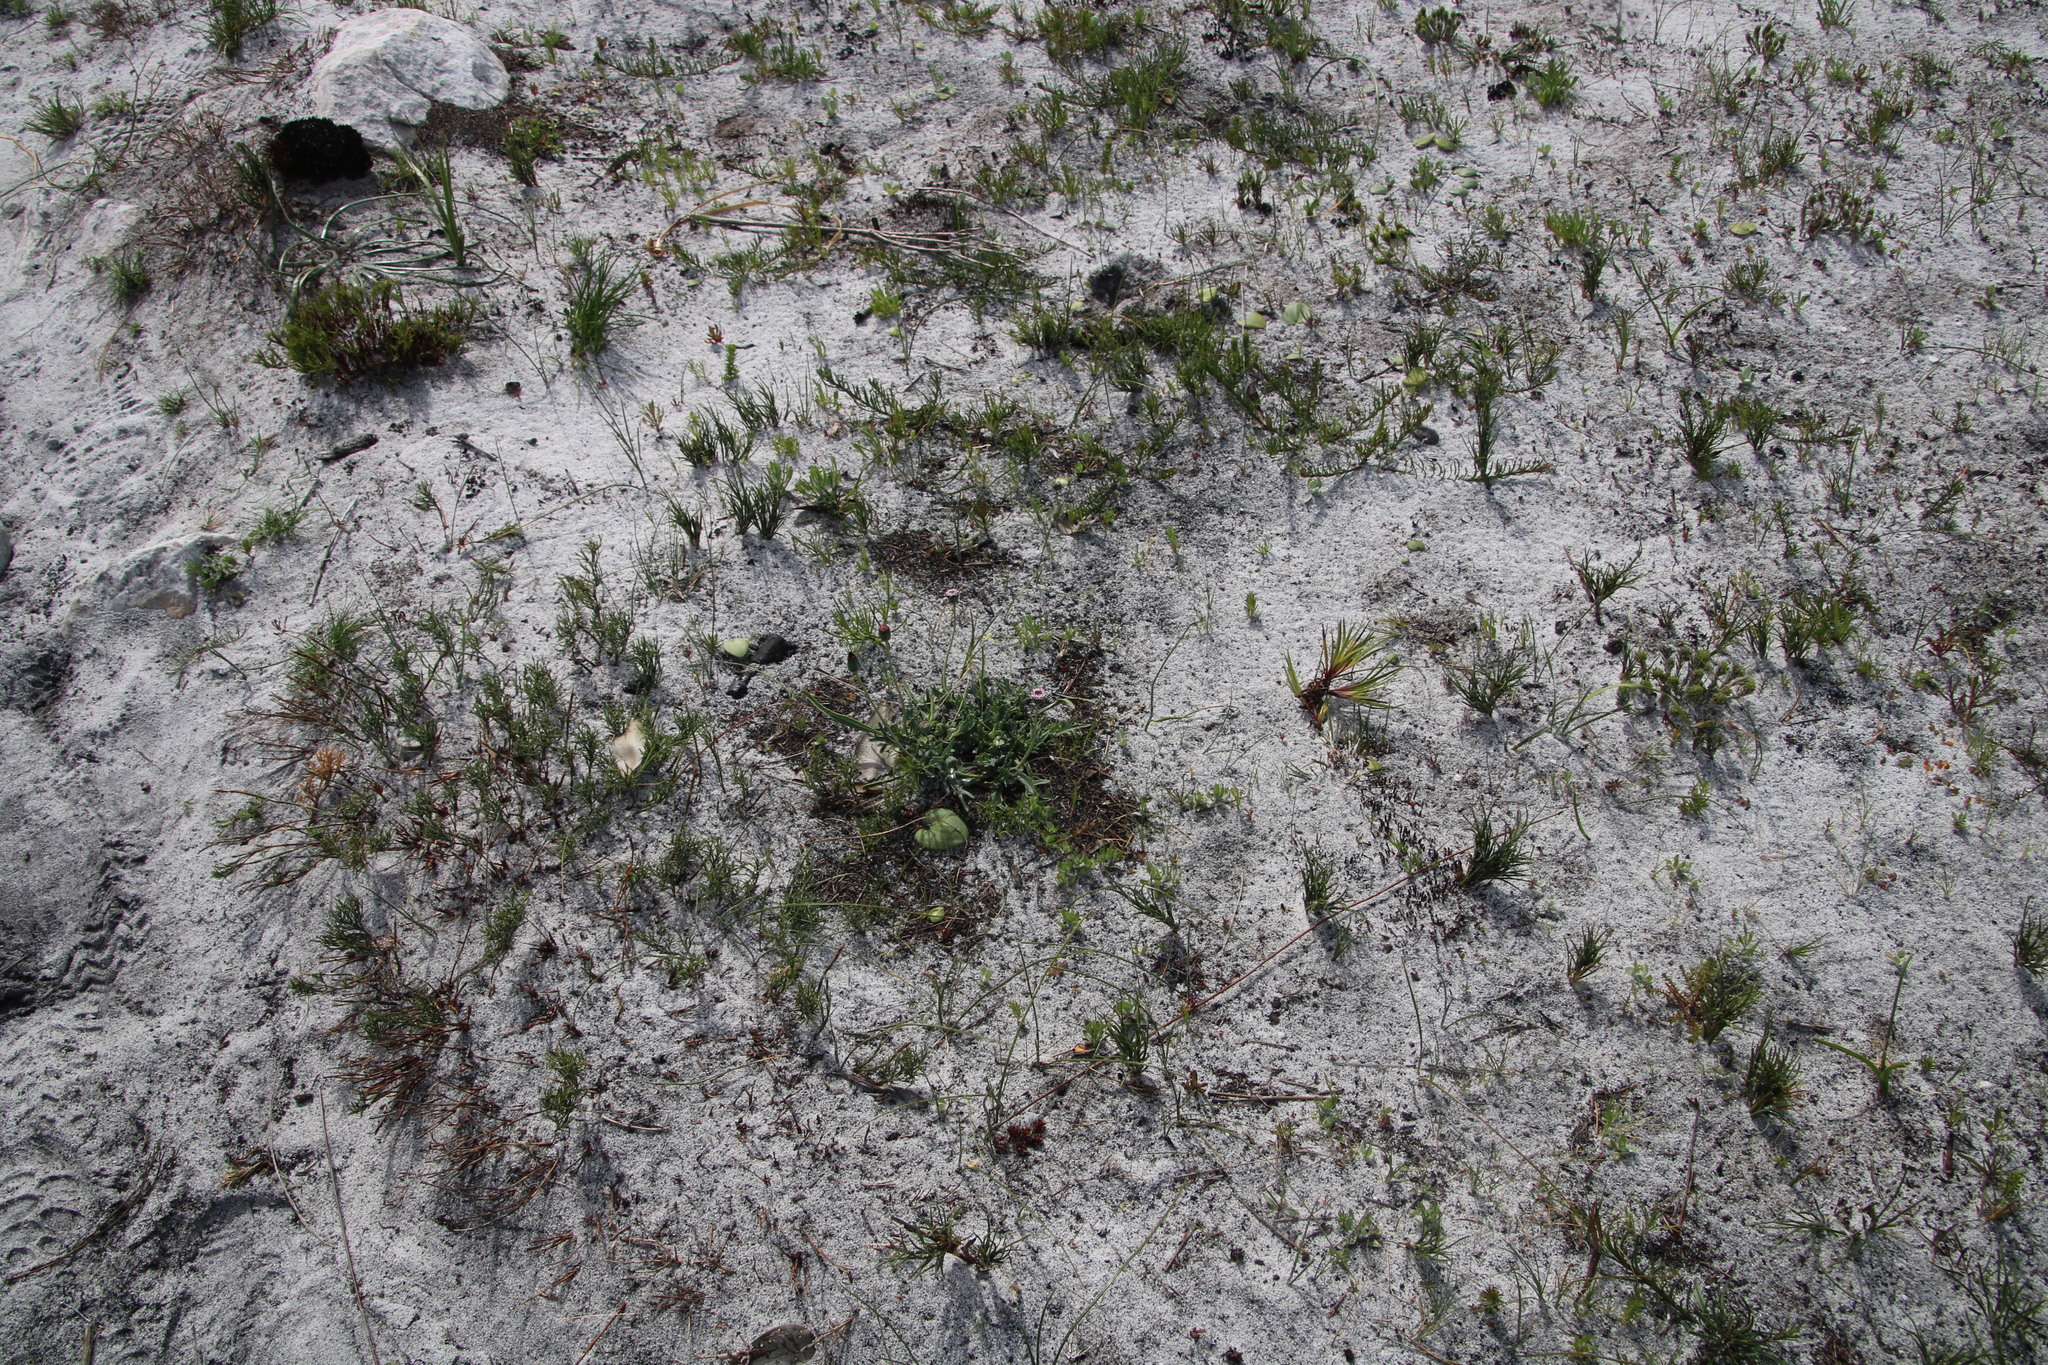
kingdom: Plantae
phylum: Tracheophyta
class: Magnoliopsida
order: Asterales
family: Asteraceae
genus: Othonna
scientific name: Othonna digitata
